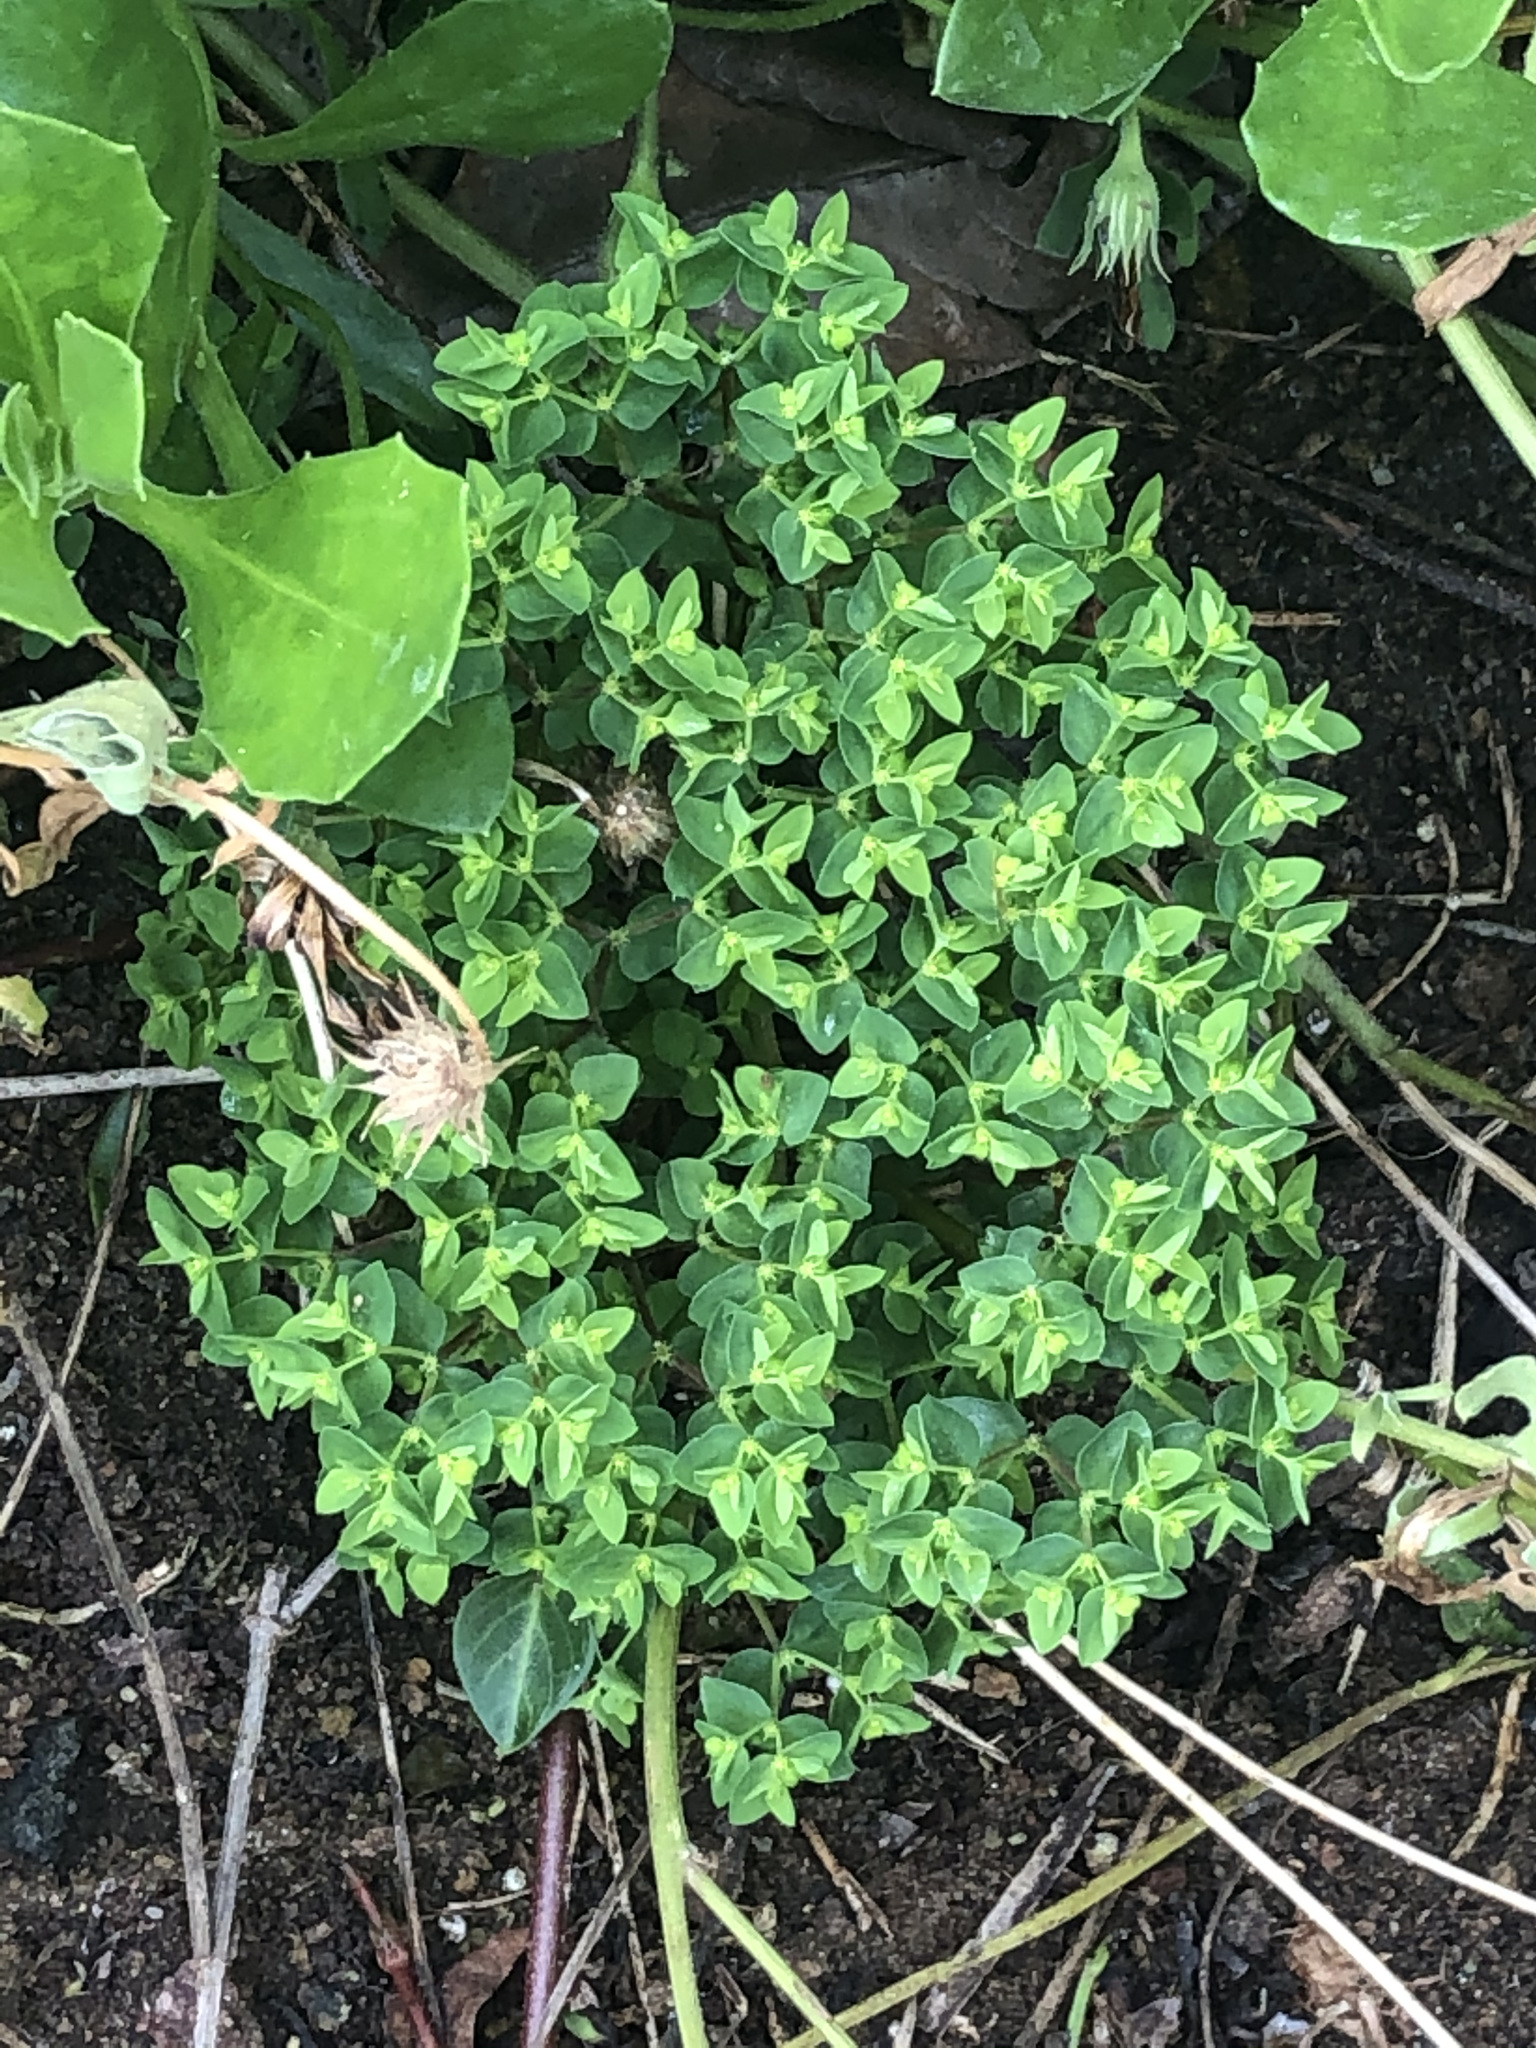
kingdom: Plantae
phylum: Tracheophyta
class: Magnoliopsida
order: Malpighiales
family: Euphorbiaceae
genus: Euphorbia
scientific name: Euphorbia peplus
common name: Petty spurge
